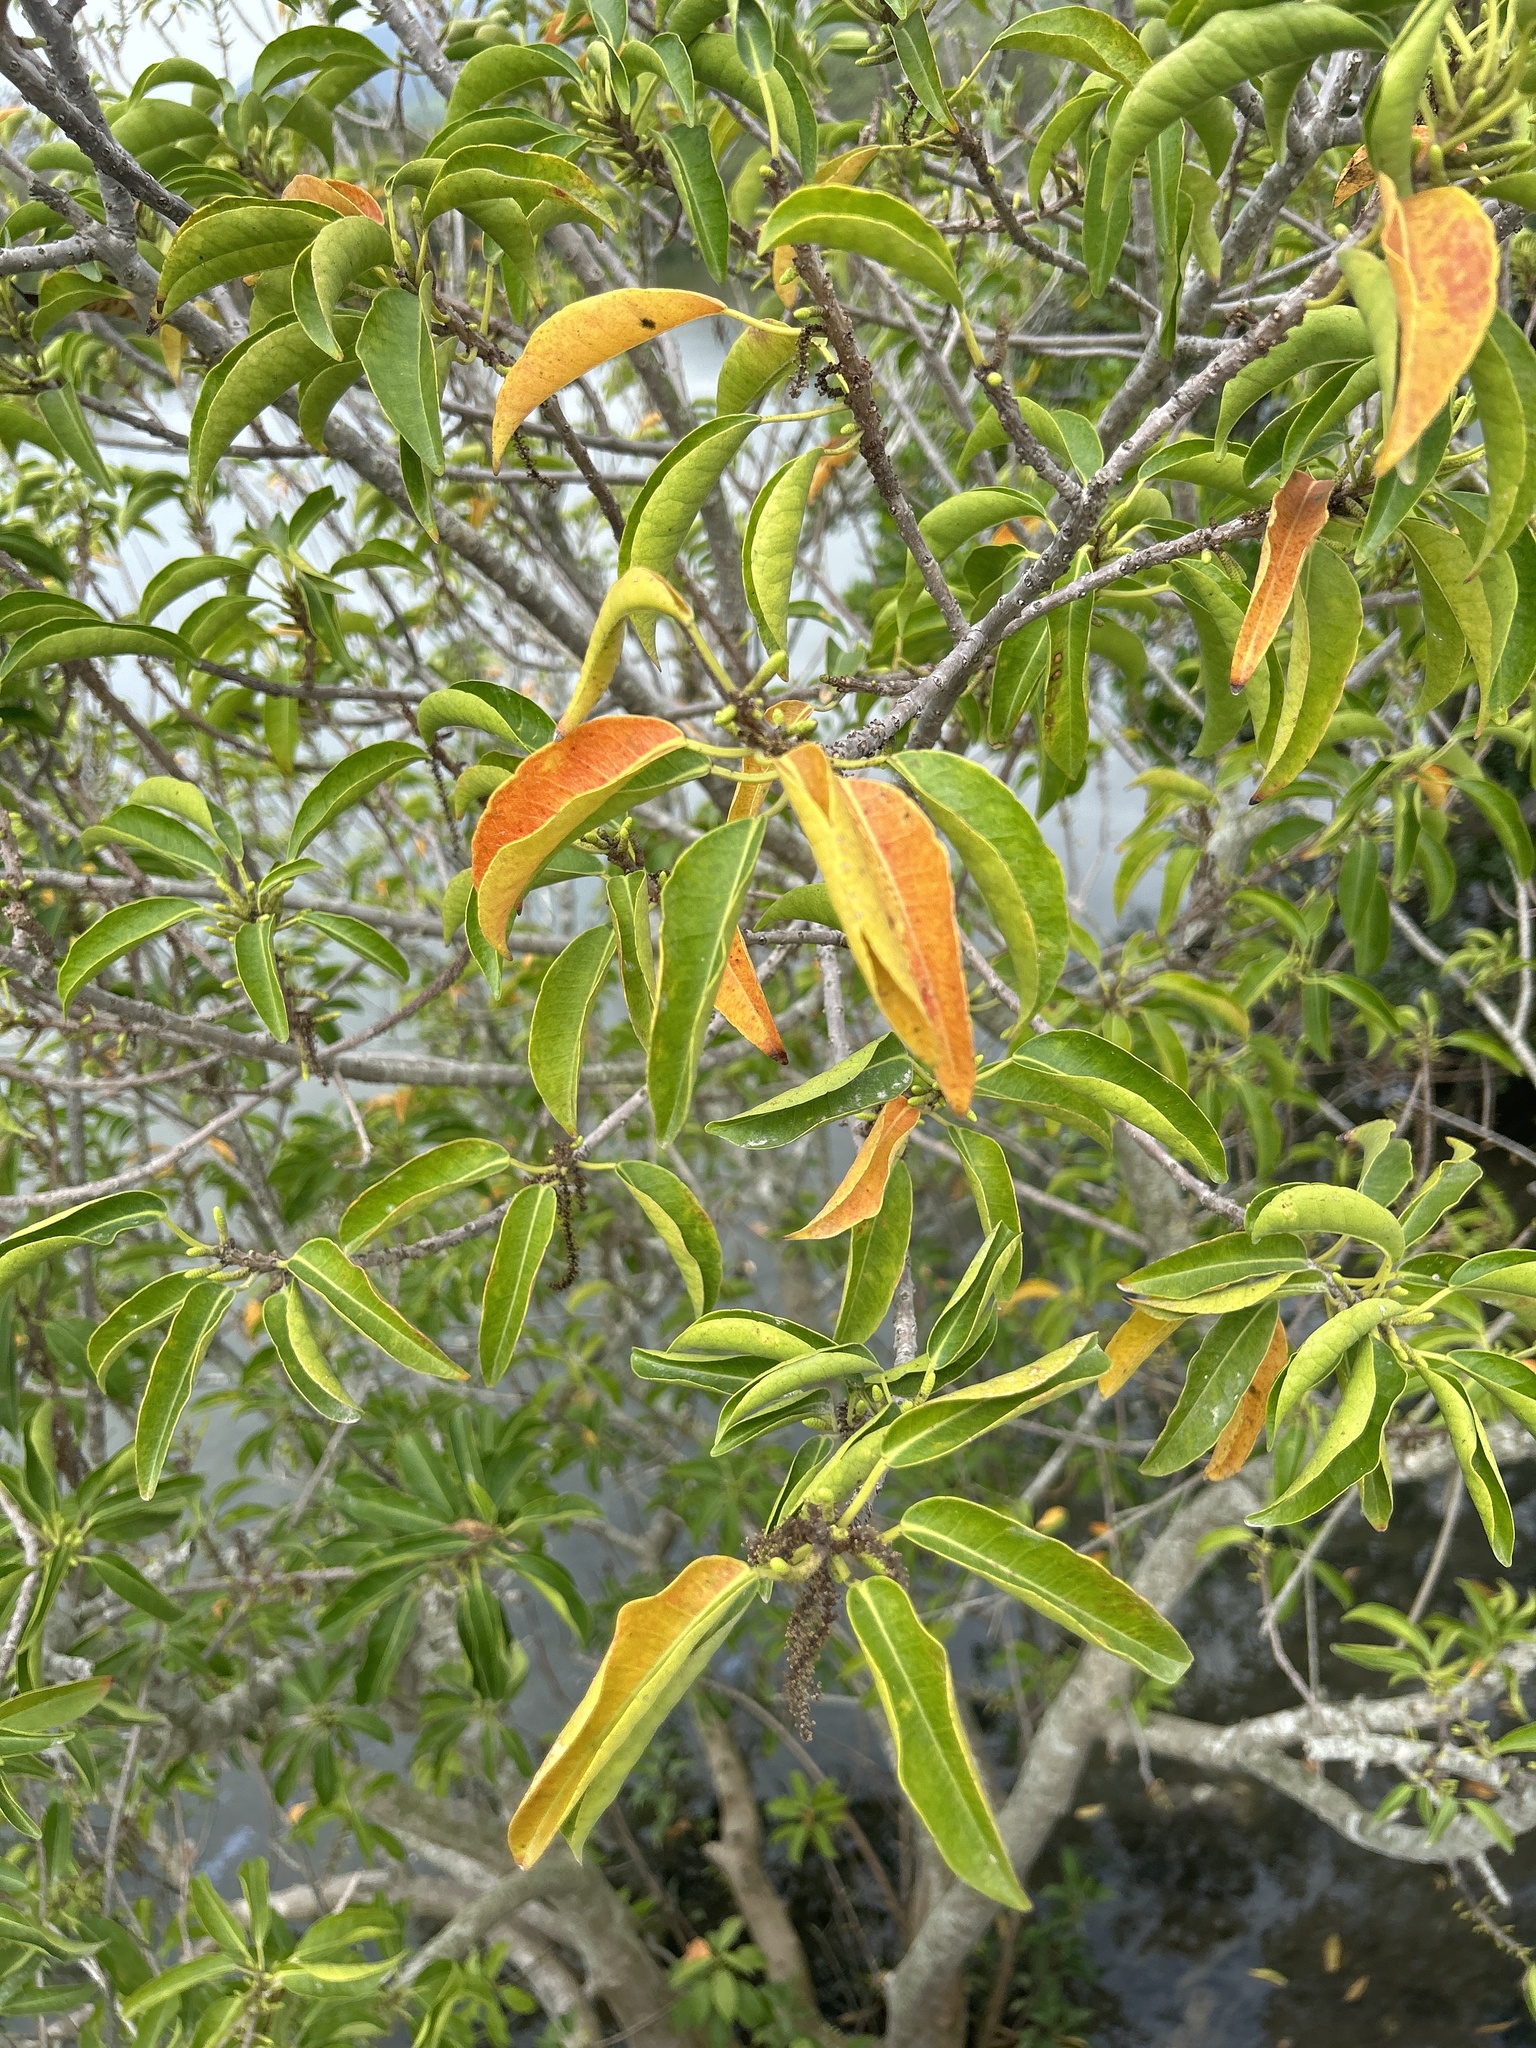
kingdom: Plantae
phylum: Tracheophyta
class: Magnoliopsida
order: Malpighiales
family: Euphorbiaceae
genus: Excoecaria
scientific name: Excoecaria agallocha
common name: River poisontree
